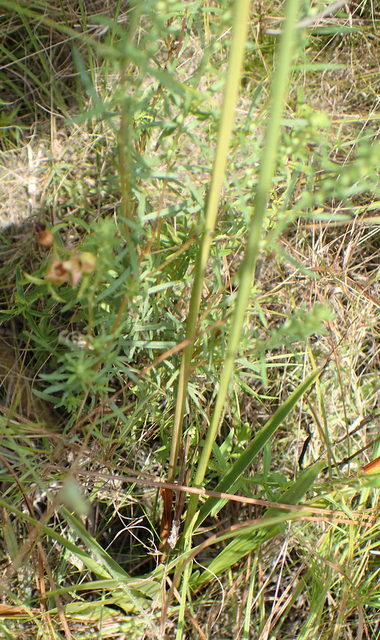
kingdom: Plantae
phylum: Tracheophyta
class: Liliopsida
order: Poales
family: Xyridaceae
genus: Xyris
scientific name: Xyris ambigua
